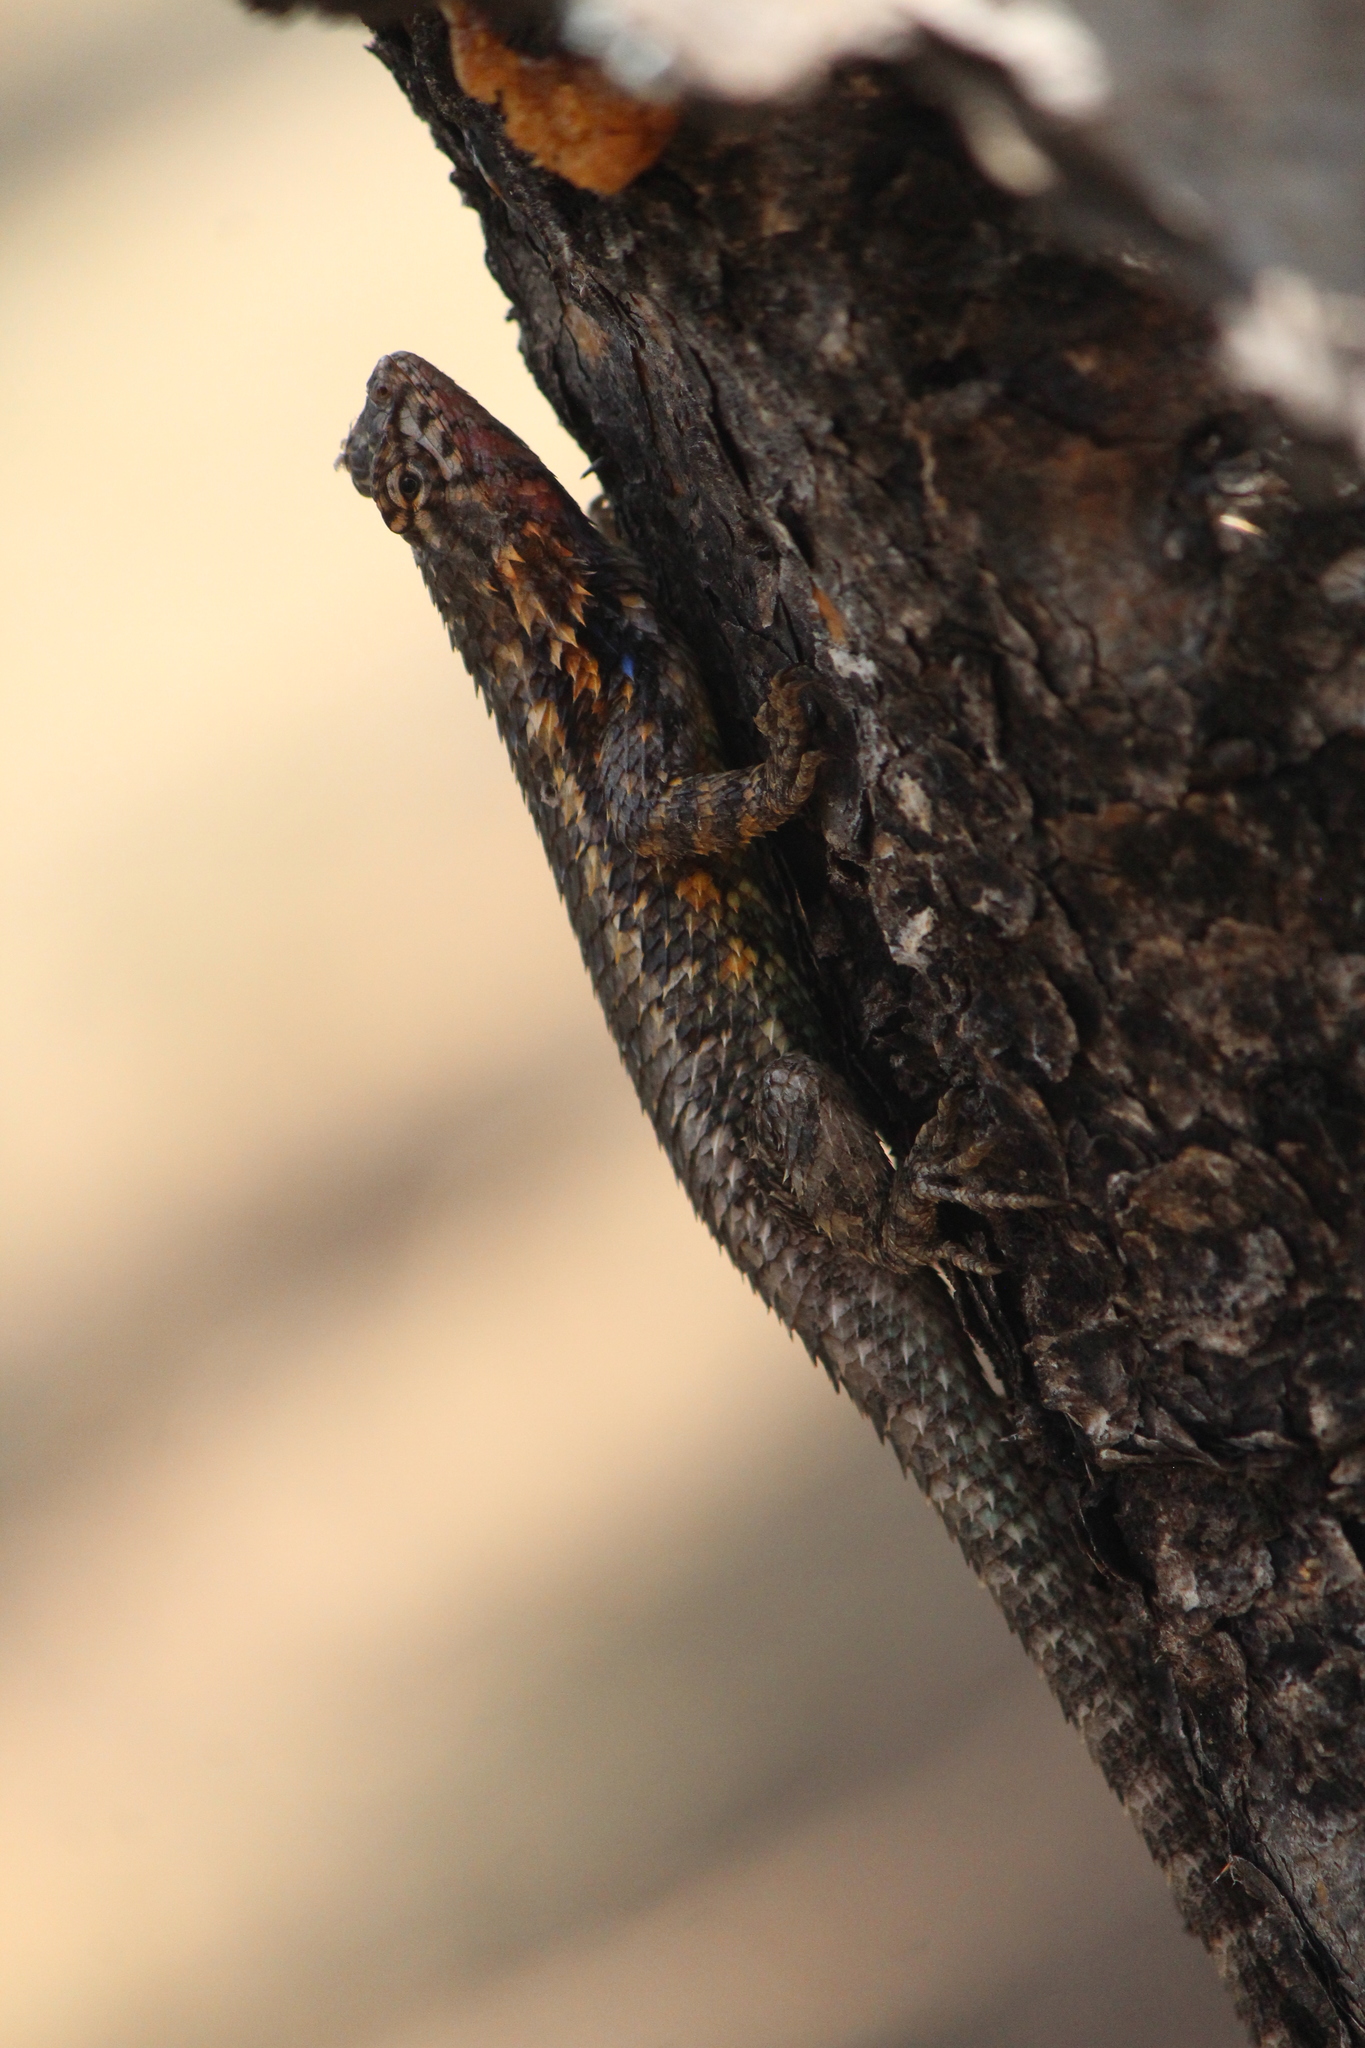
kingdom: Animalia
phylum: Chordata
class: Squamata
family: Phrynosomatidae
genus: Sceloporus
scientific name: Sceloporus spinosus
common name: Blue-spotted spiny lizard [caeruleopunctatus]
